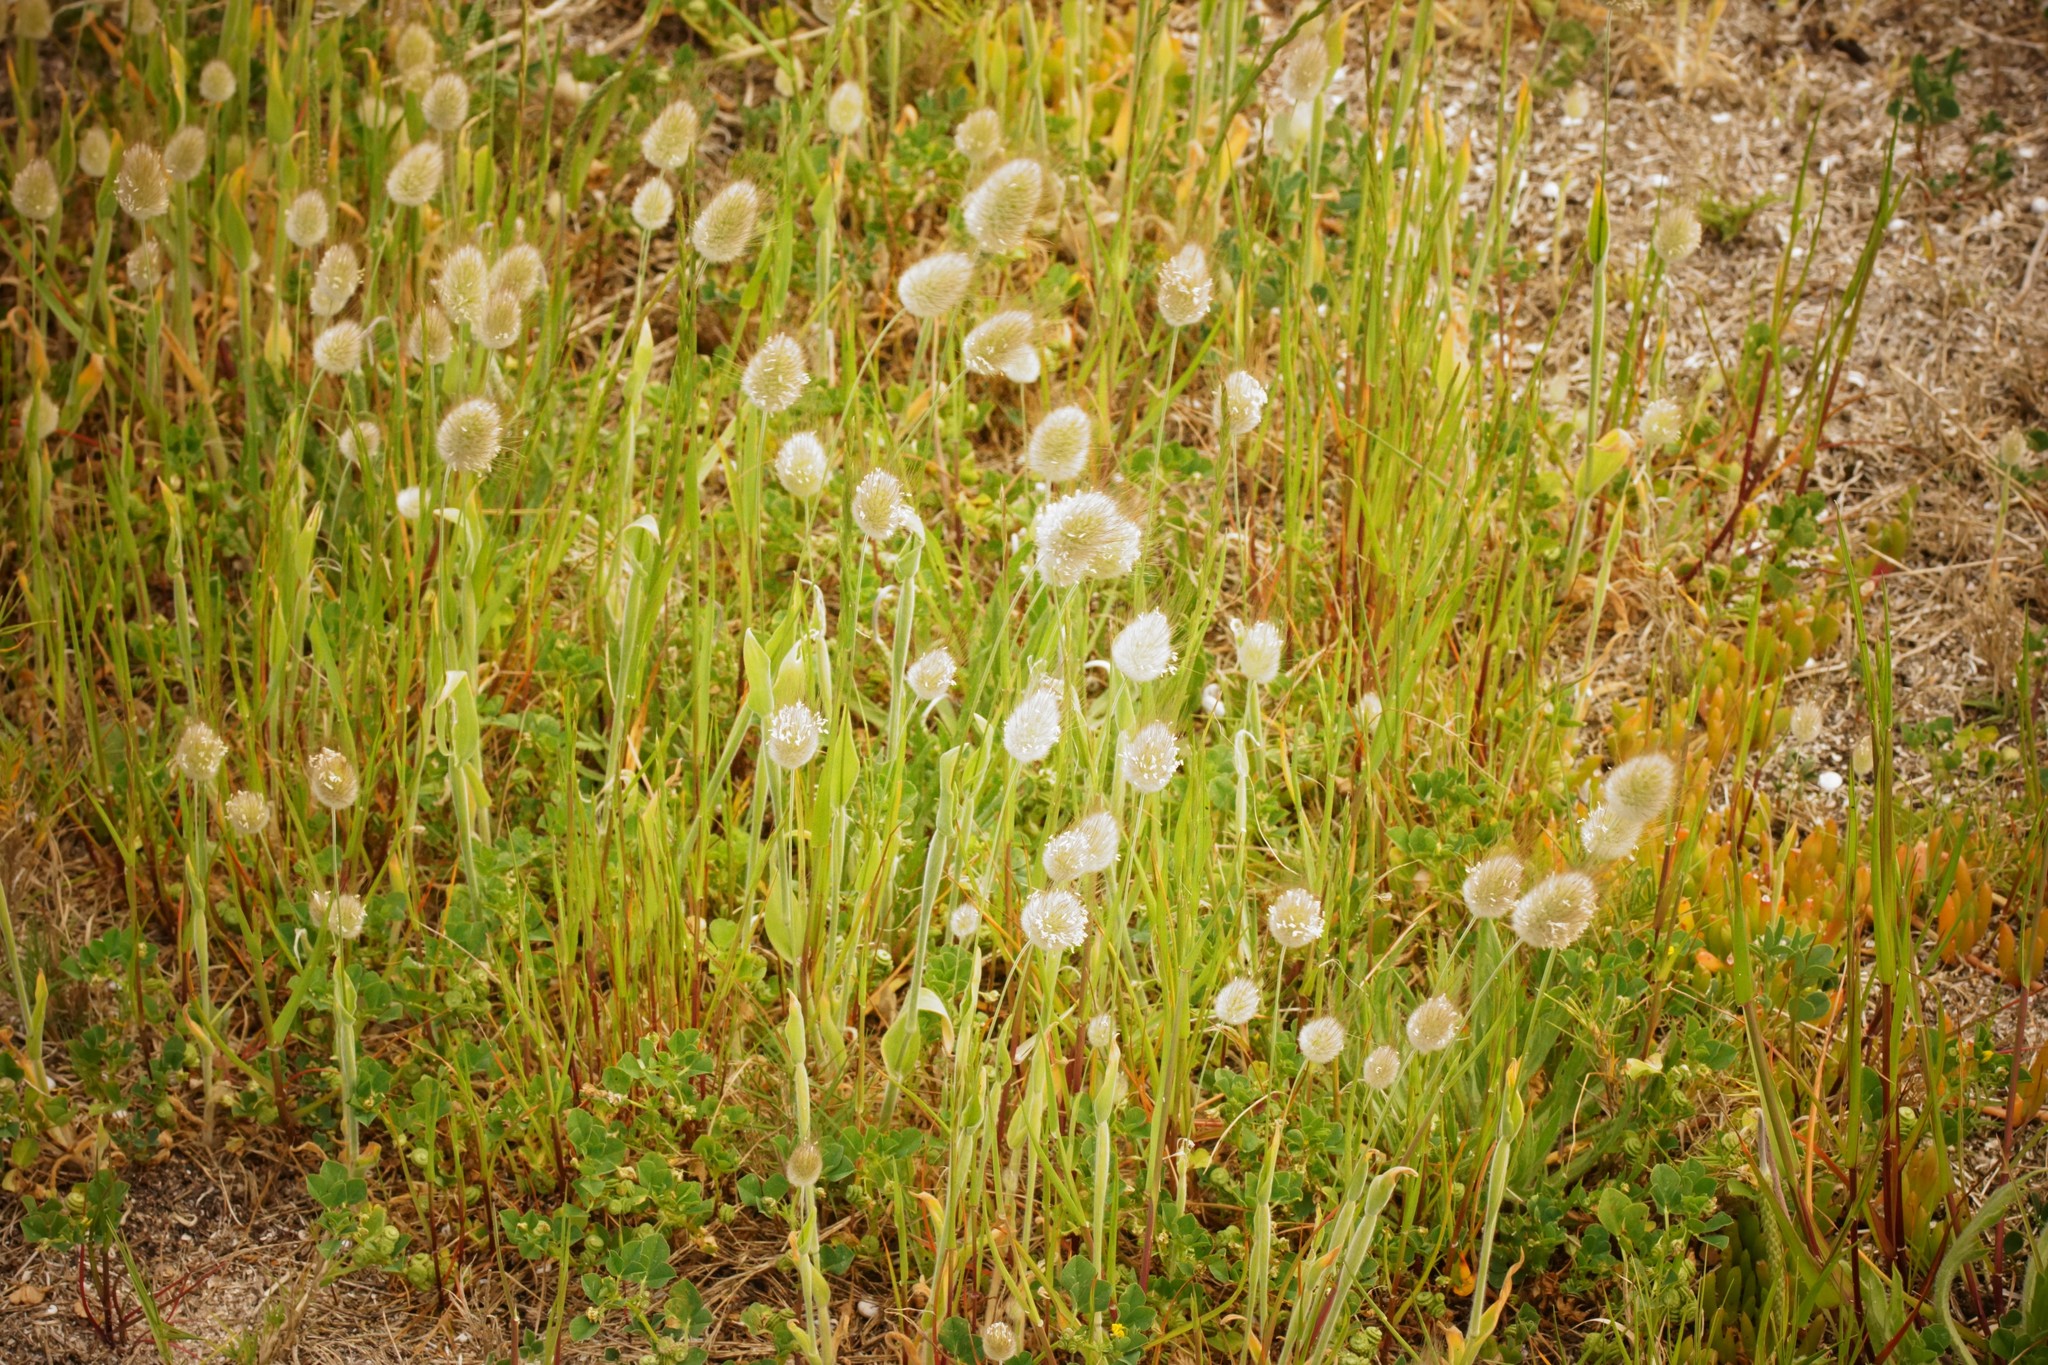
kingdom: Plantae
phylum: Tracheophyta
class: Liliopsida
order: Poales
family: Poaceae
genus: Lagurus
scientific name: Lagurus ovatus
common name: Hare's-tail
